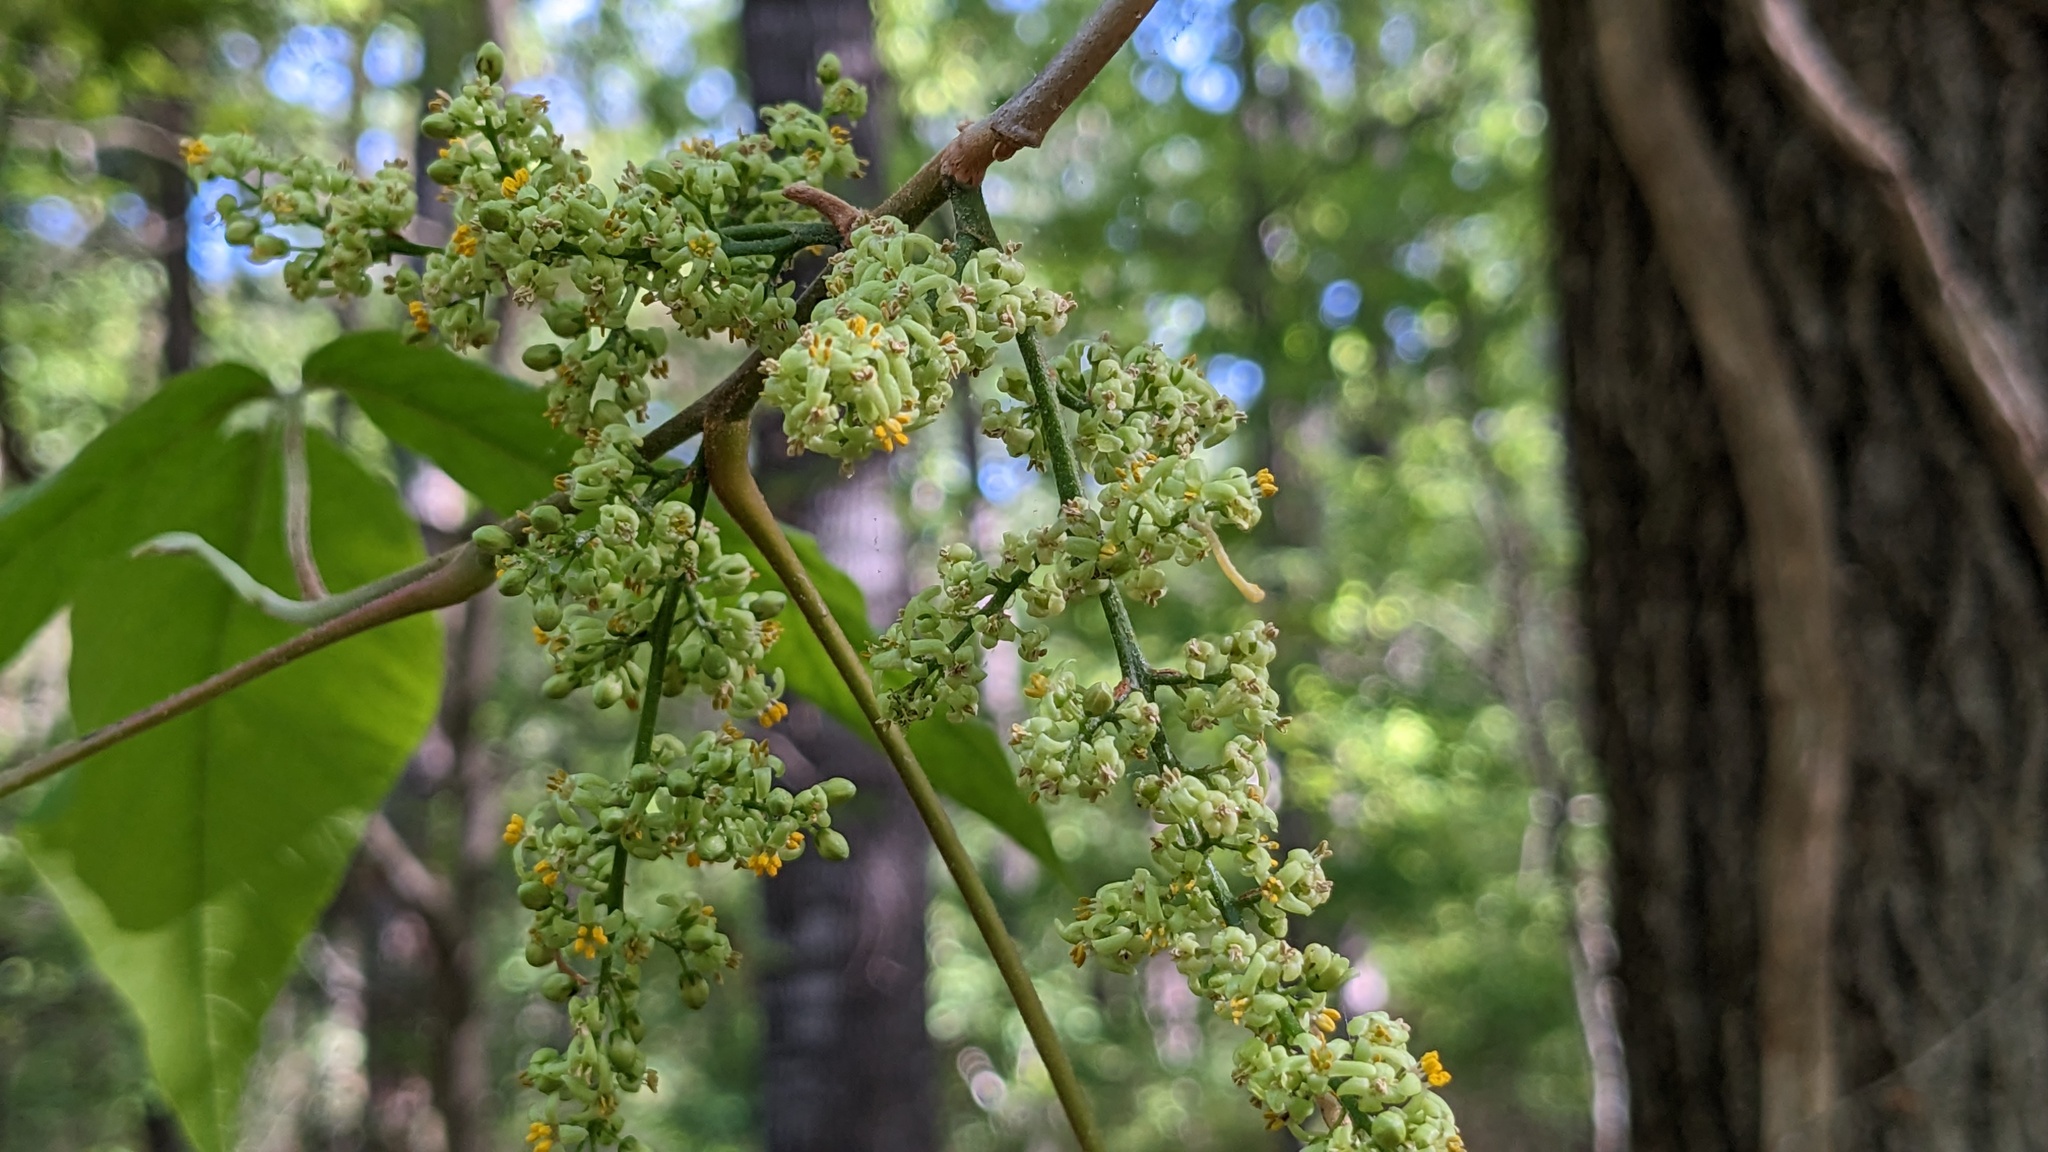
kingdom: Plantae
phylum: Tracheophyta
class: Magnoliopsida
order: Sapindales
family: Anacardiaceae
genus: Toxicodendron
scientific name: Toxicodendron radicans
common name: Poison ivy
